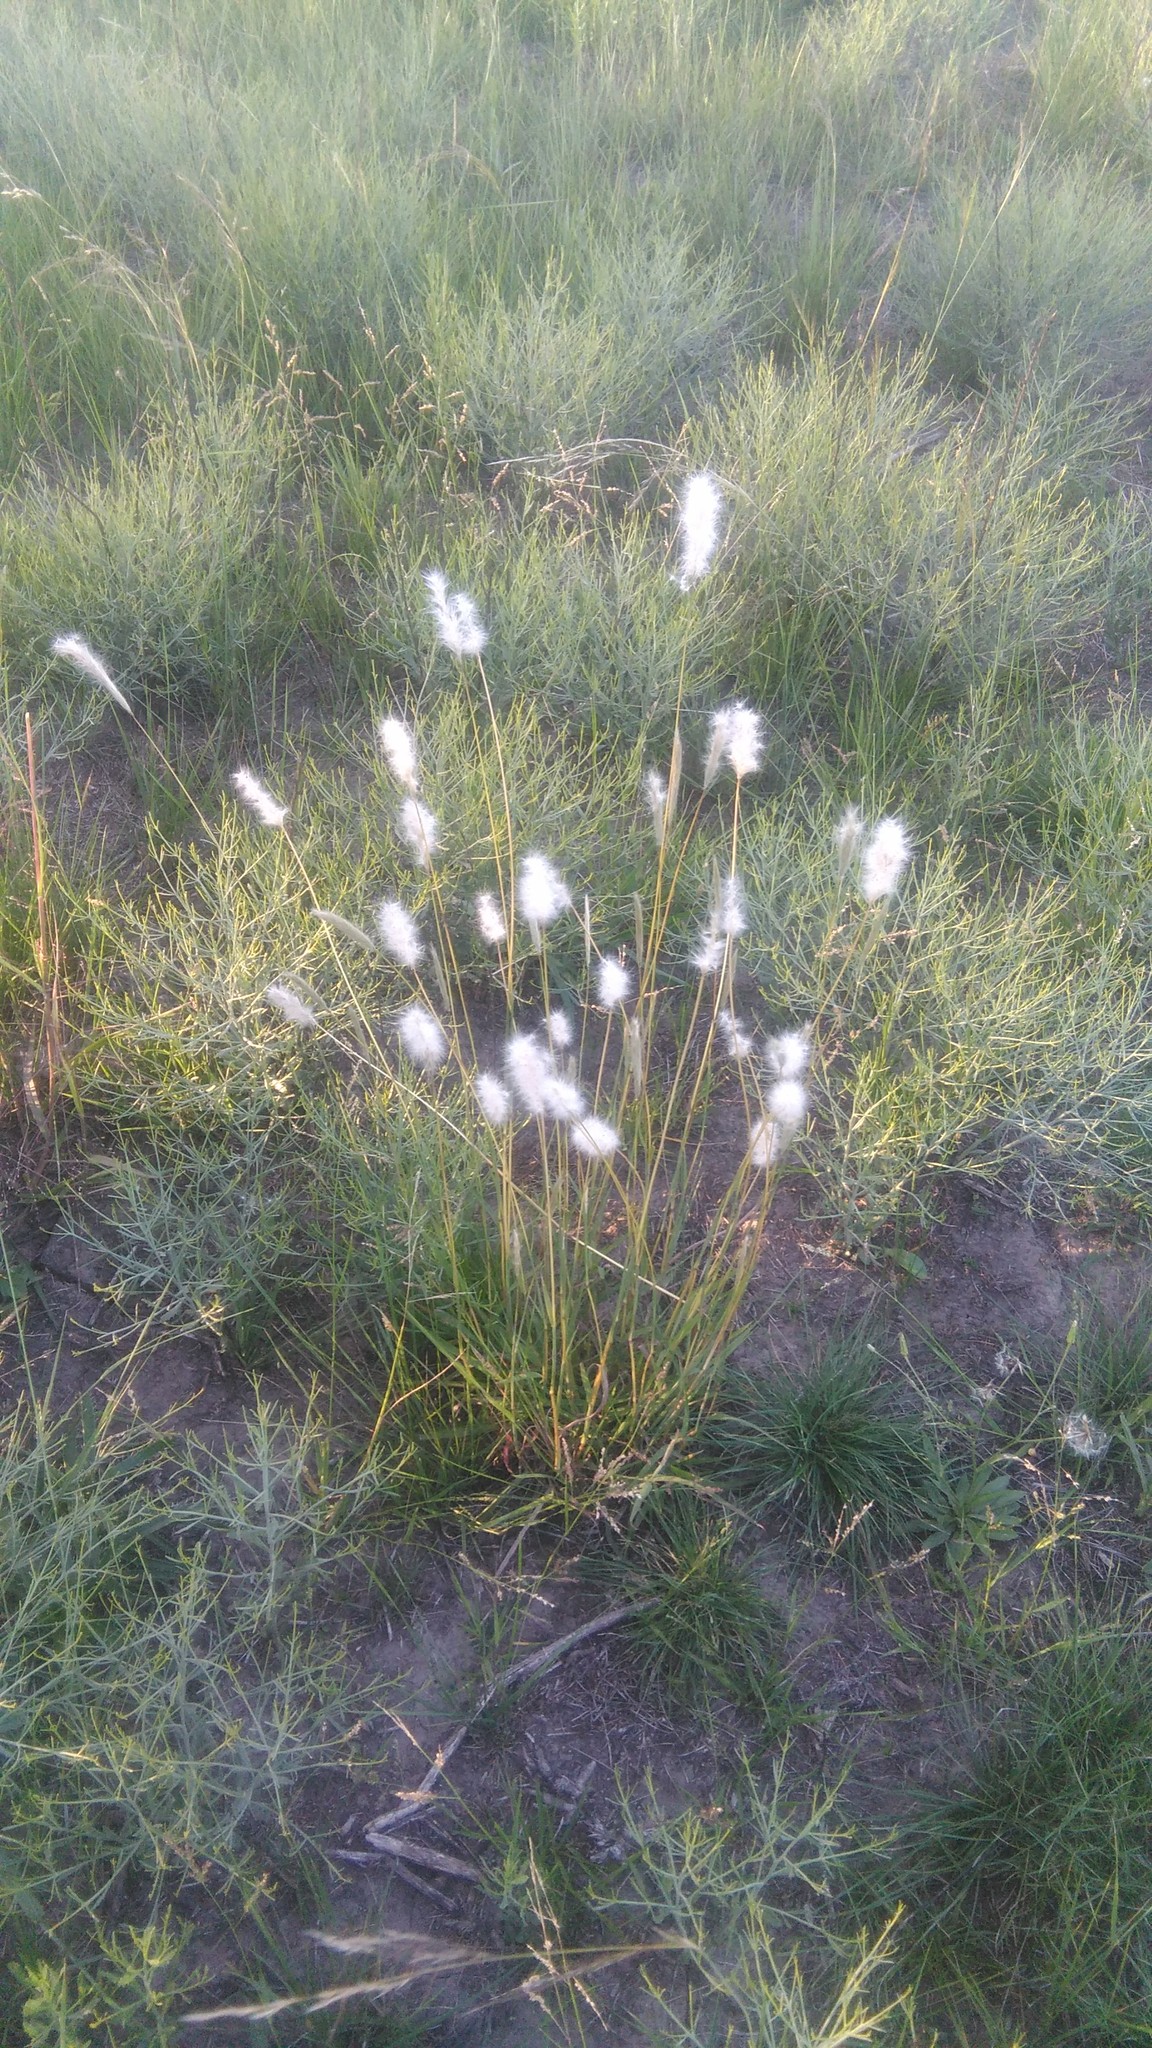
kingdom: Plantae
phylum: Tracheophyta
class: Liliopsida
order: Poales
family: Poaceae
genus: Bothriochloa
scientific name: Bothriochloa laguroides
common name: Silver bluestem
